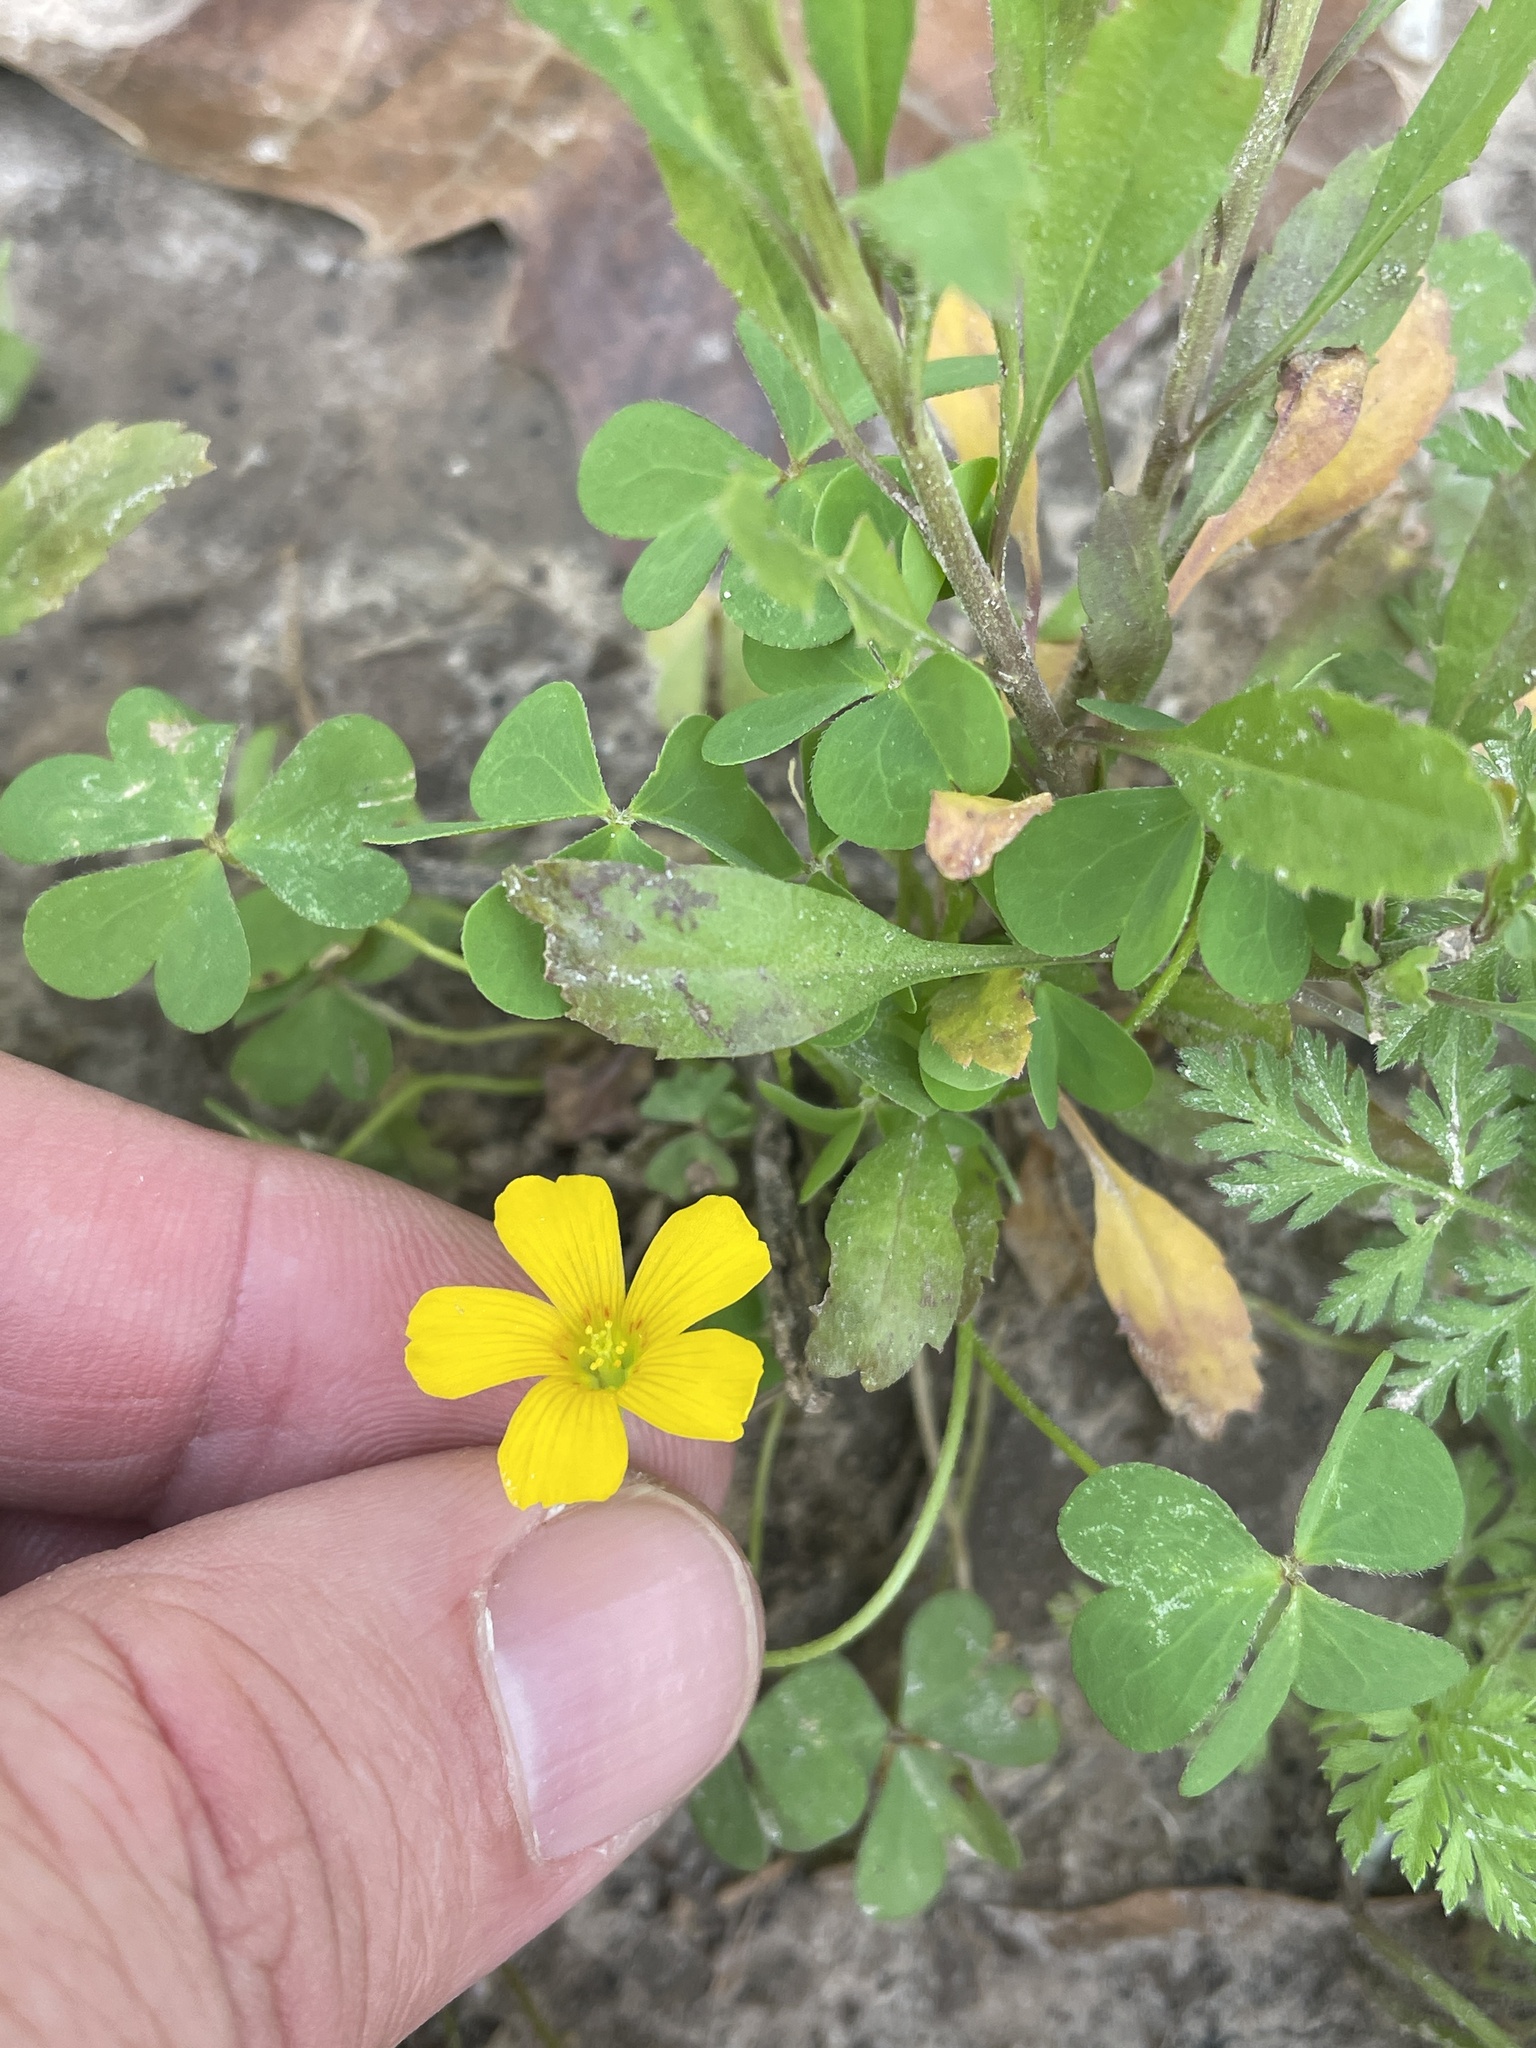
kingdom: Plantae
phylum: Tracheophyta
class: Magnoliopsida
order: Oxalidales
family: Oxalidaceae
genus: Oxalis
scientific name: Oxalis dillenii
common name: Sussex yellow-sorrel
